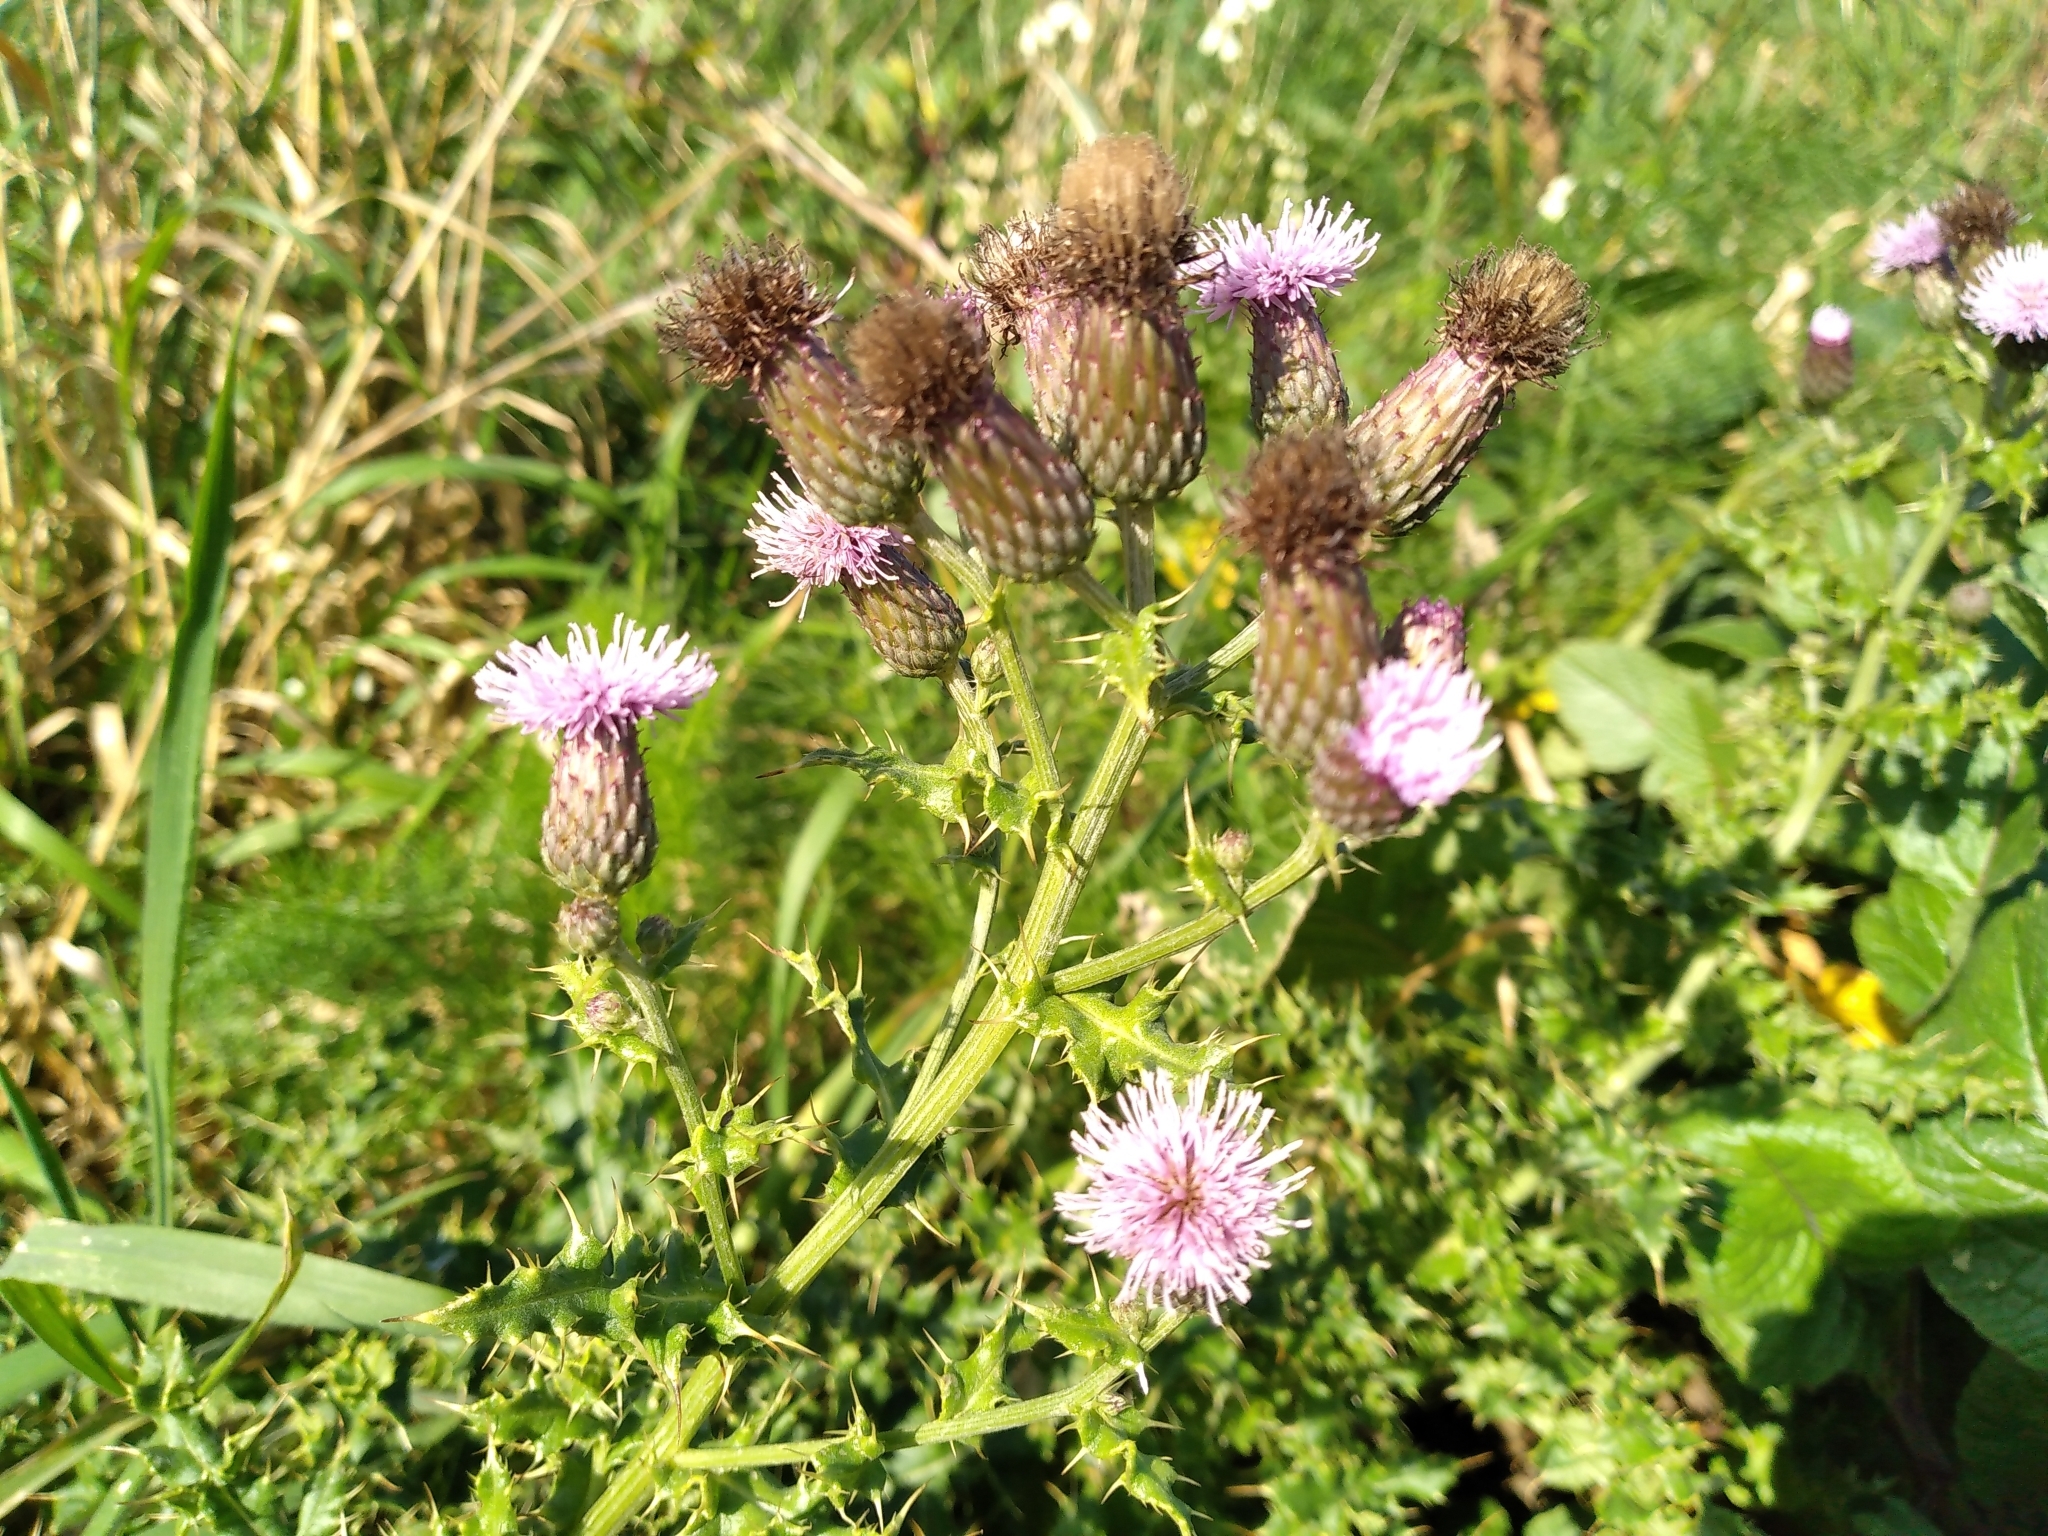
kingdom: Plantae
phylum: Tracheophyta
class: Magnoliopsida
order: Asterales
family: Asteraceae
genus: Cirsium
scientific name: Cirsium arvense
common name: Creeping thistle
